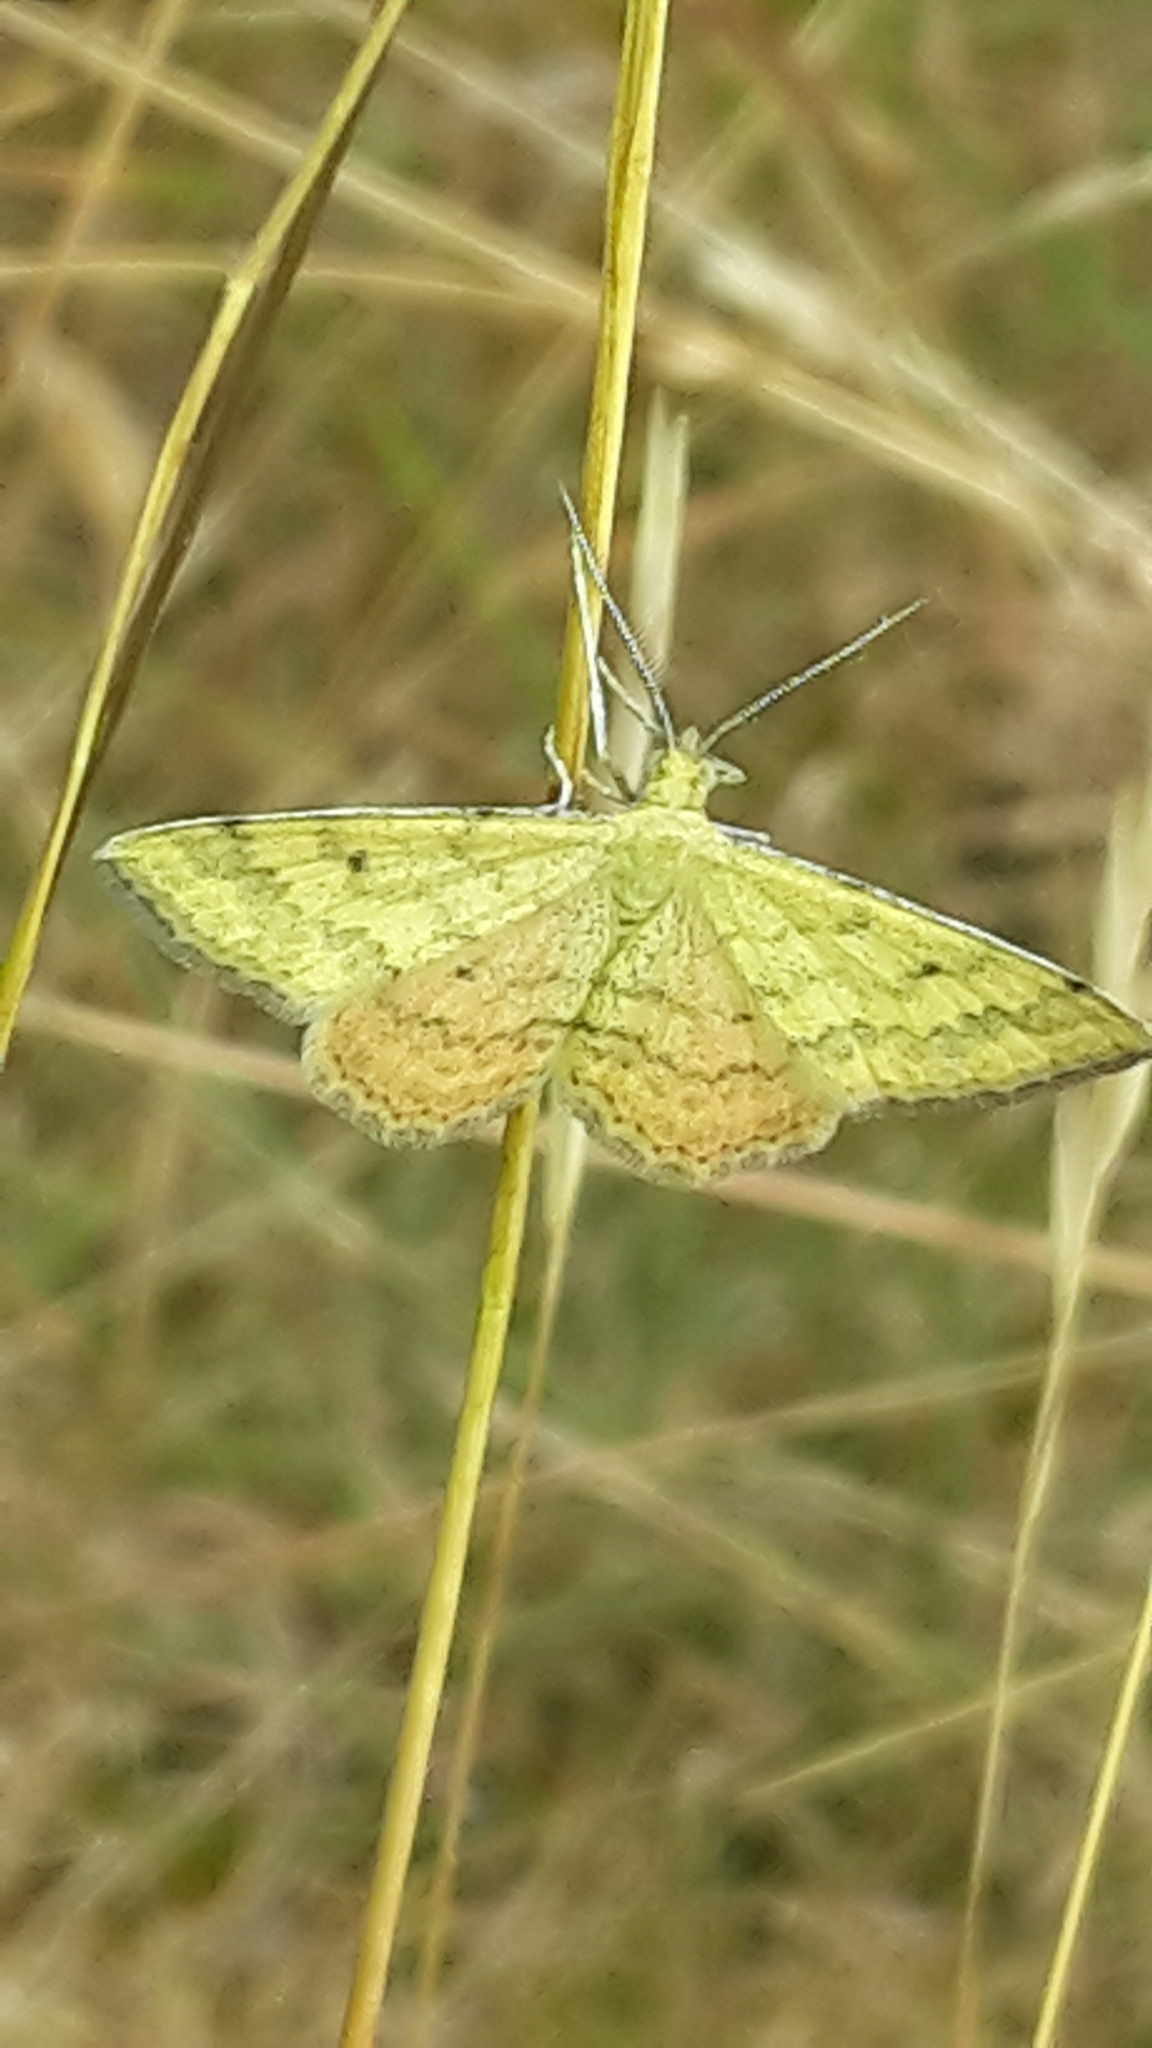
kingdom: Animalia
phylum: Arthropoda
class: Insecta
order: Lepidoptera
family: Geometridae
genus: Scopula
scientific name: Scopula rubraria
